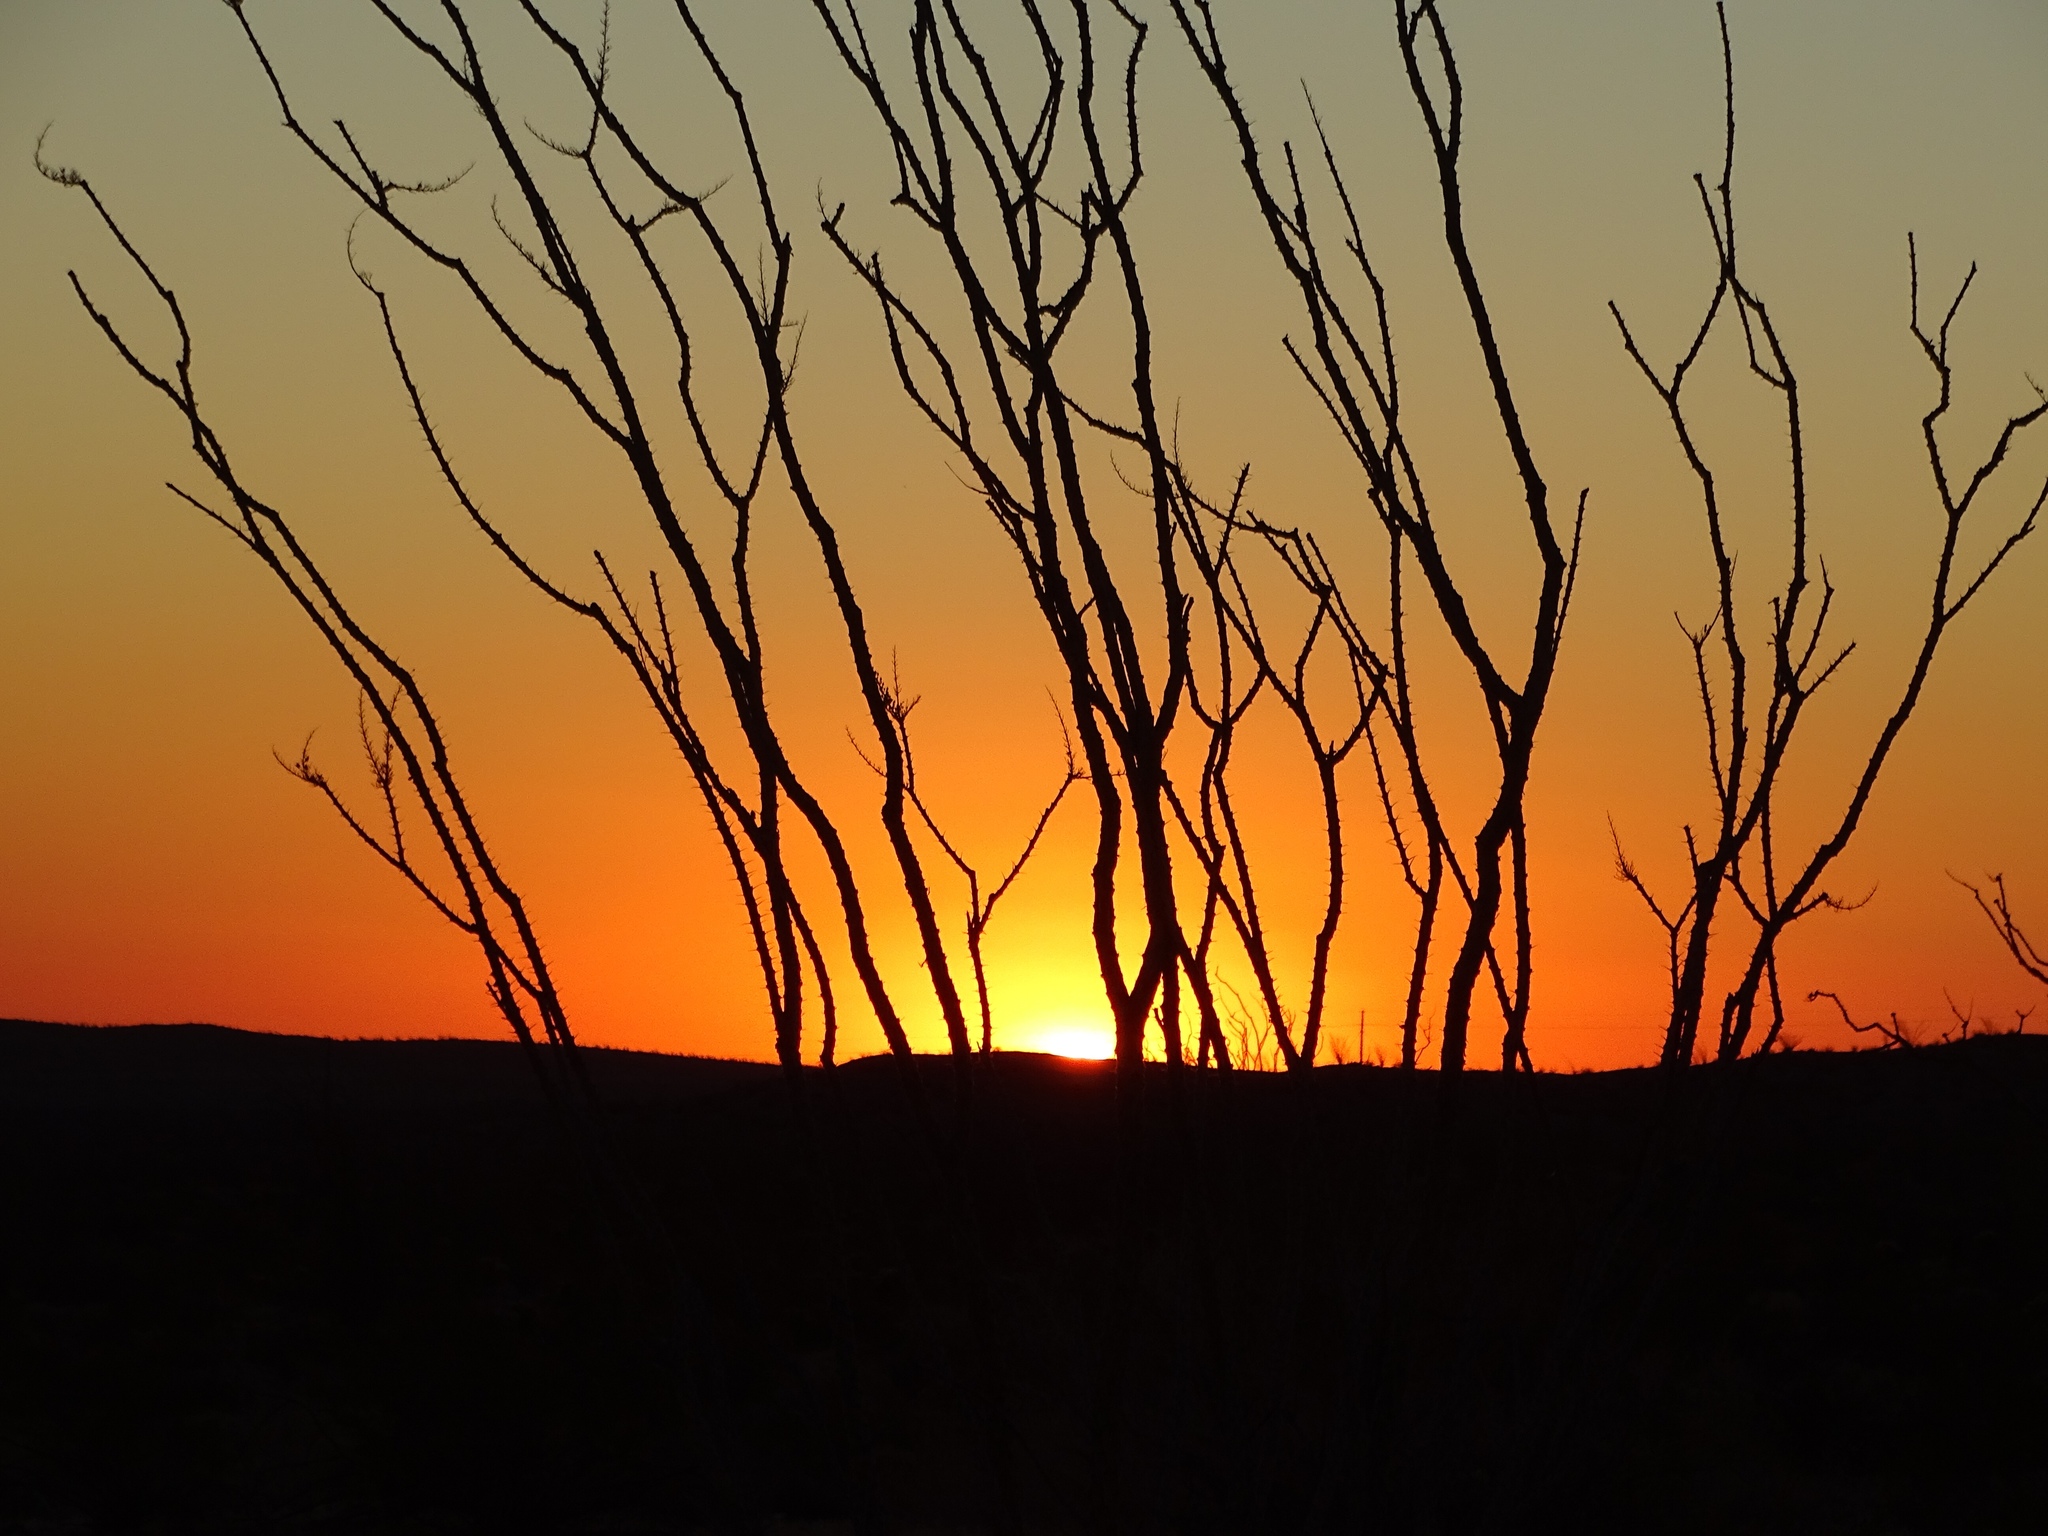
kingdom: Plantae
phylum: Tracheophyta
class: Magnoliopsida
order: Ericales
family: Fouquieriaceae
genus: Fouquieria
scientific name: Fouquieria splendens
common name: Vine-cactus
